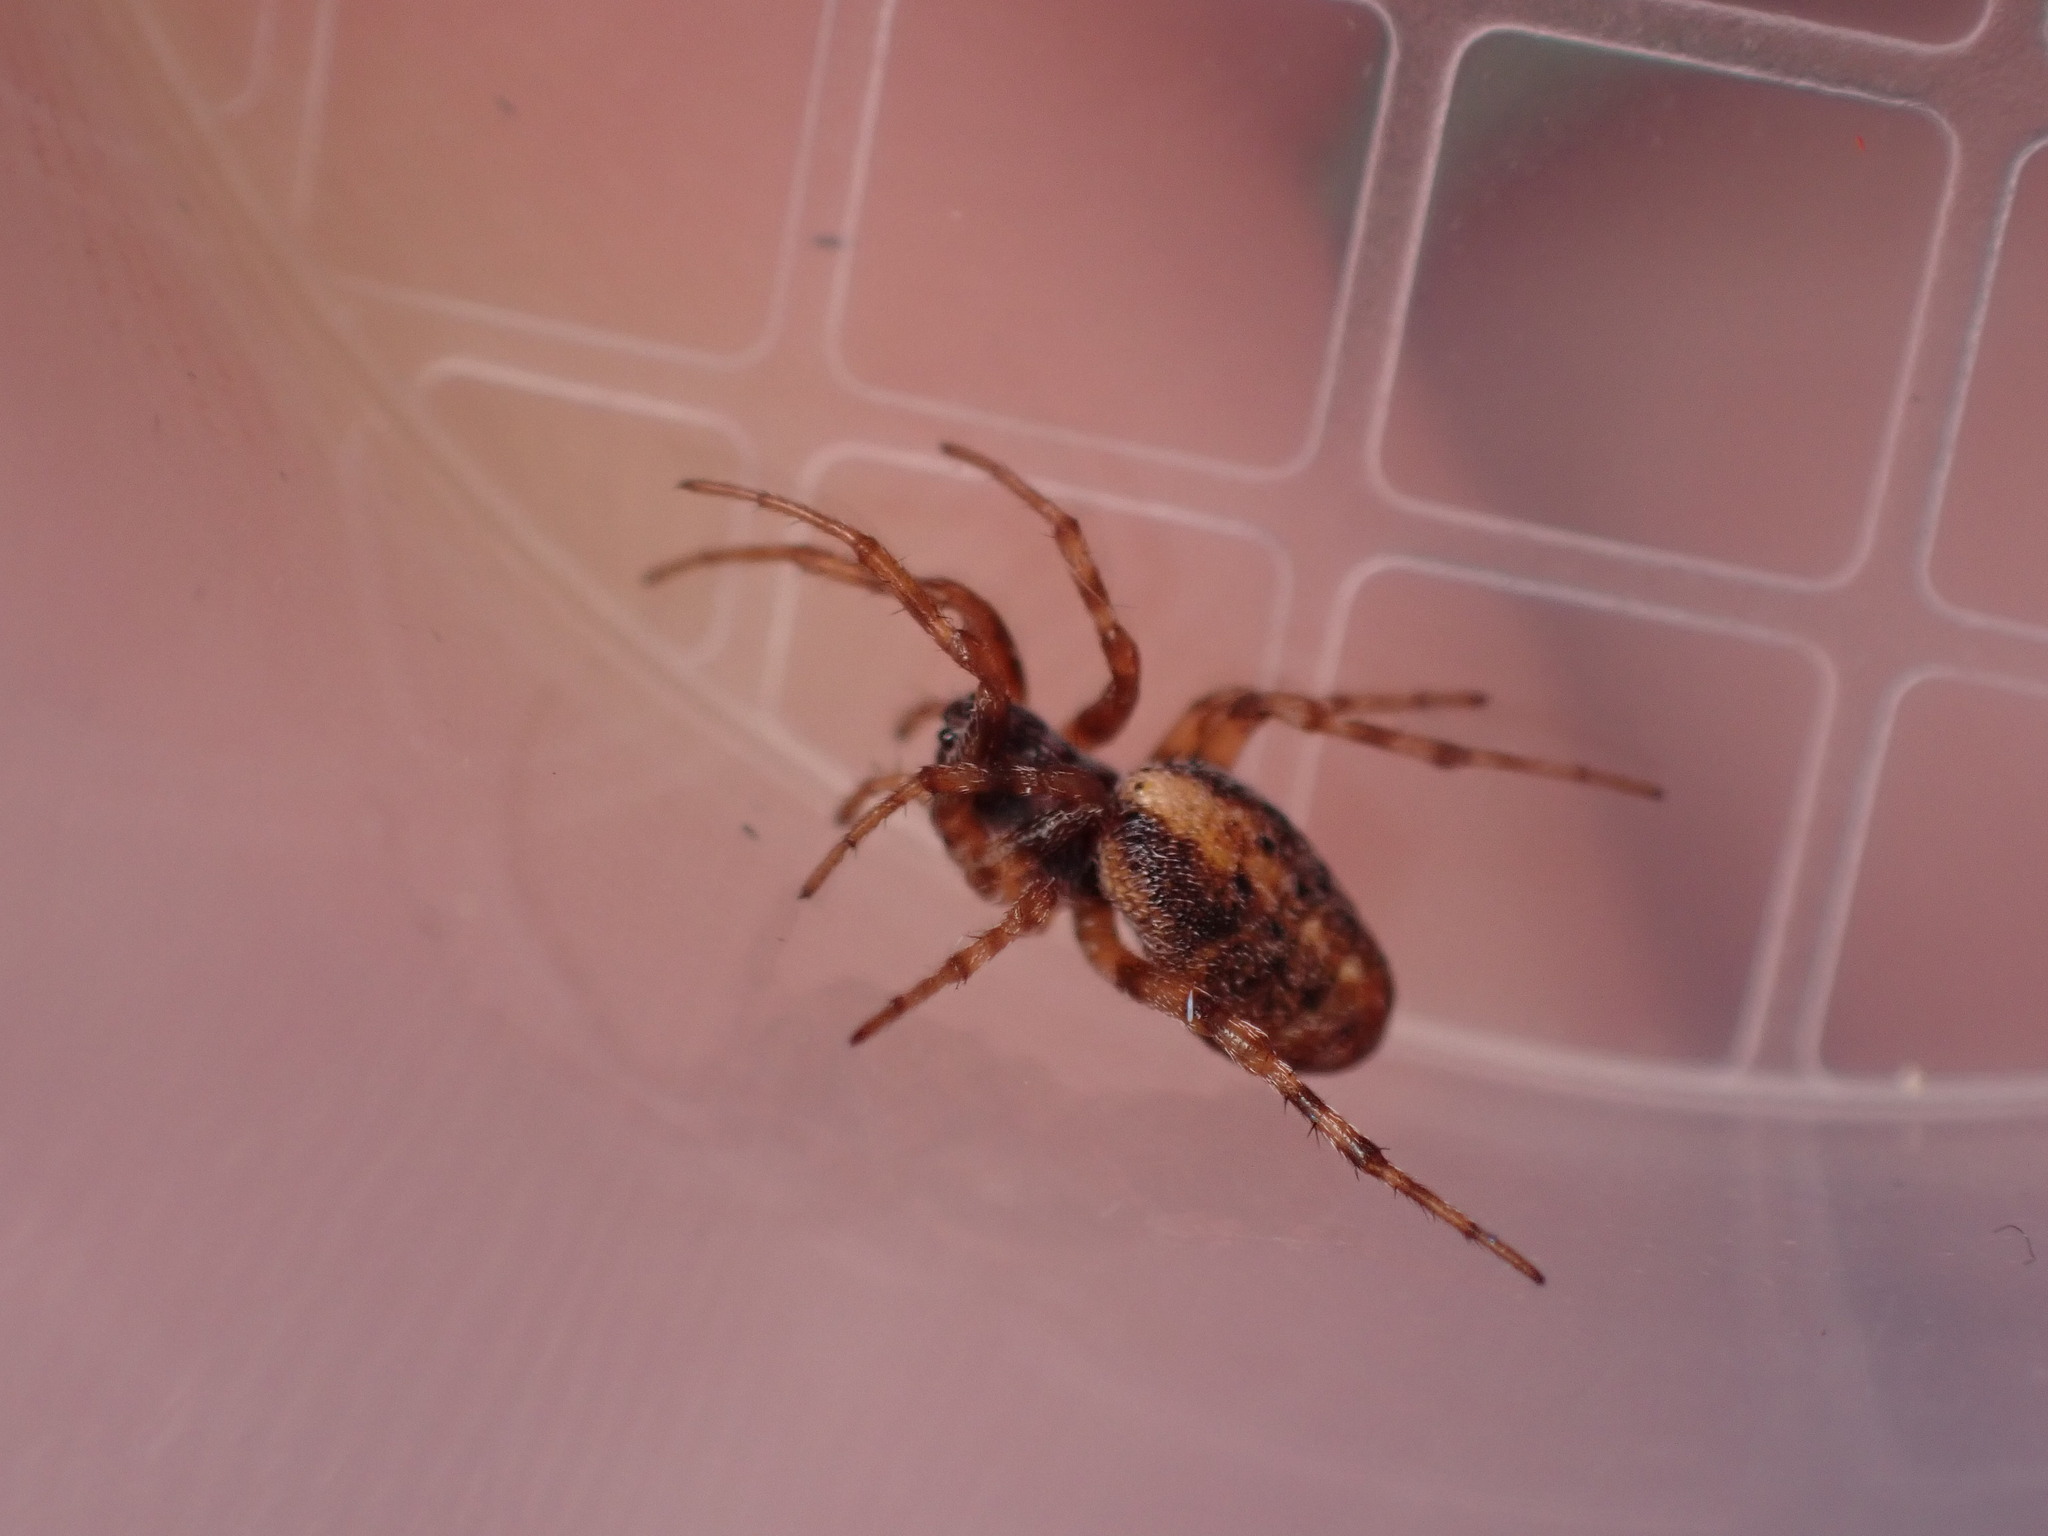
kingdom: Animalia
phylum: Arthropoda
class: Arachnida
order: Araneae
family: Araneidae
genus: Cercidia
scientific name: Cercidia prominens
